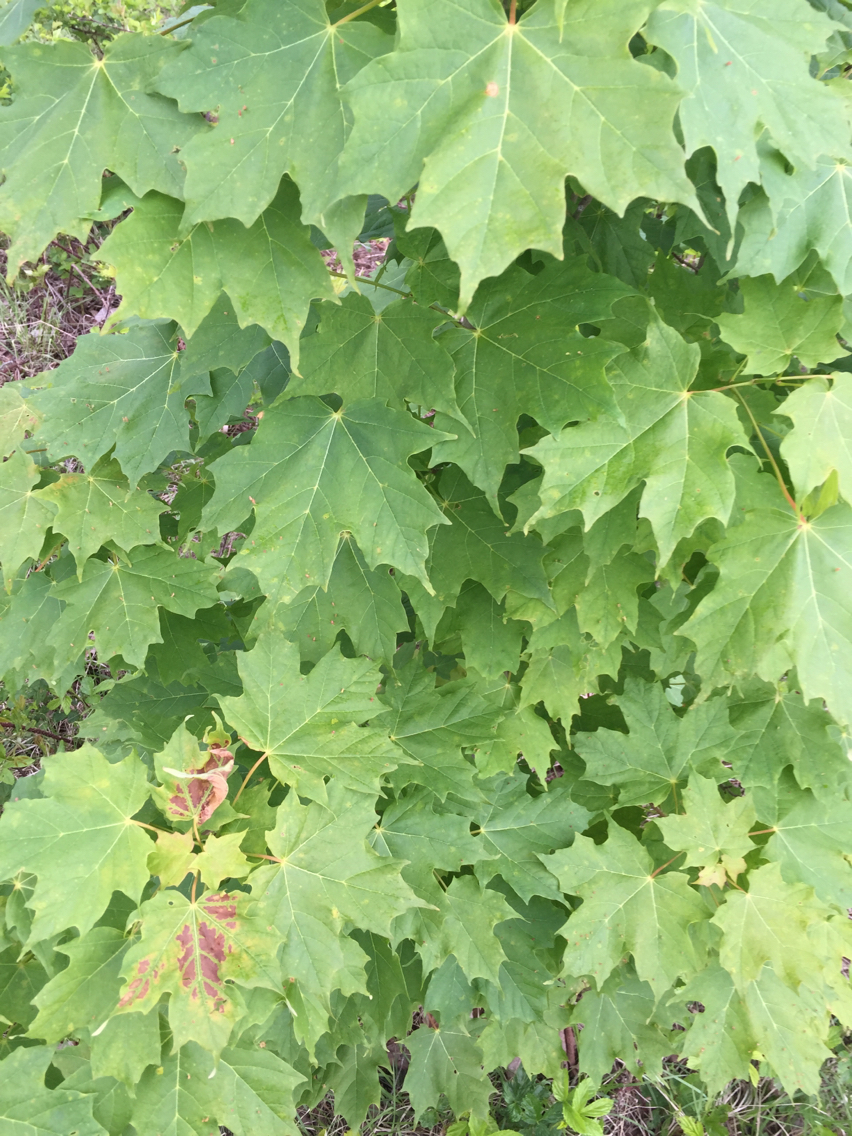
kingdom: Plantae
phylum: Tracheophyta
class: Magnoliopsida
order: Sapindales
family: Sapindaceae
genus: Acer
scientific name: Acer saccharum
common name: Sugar maple
